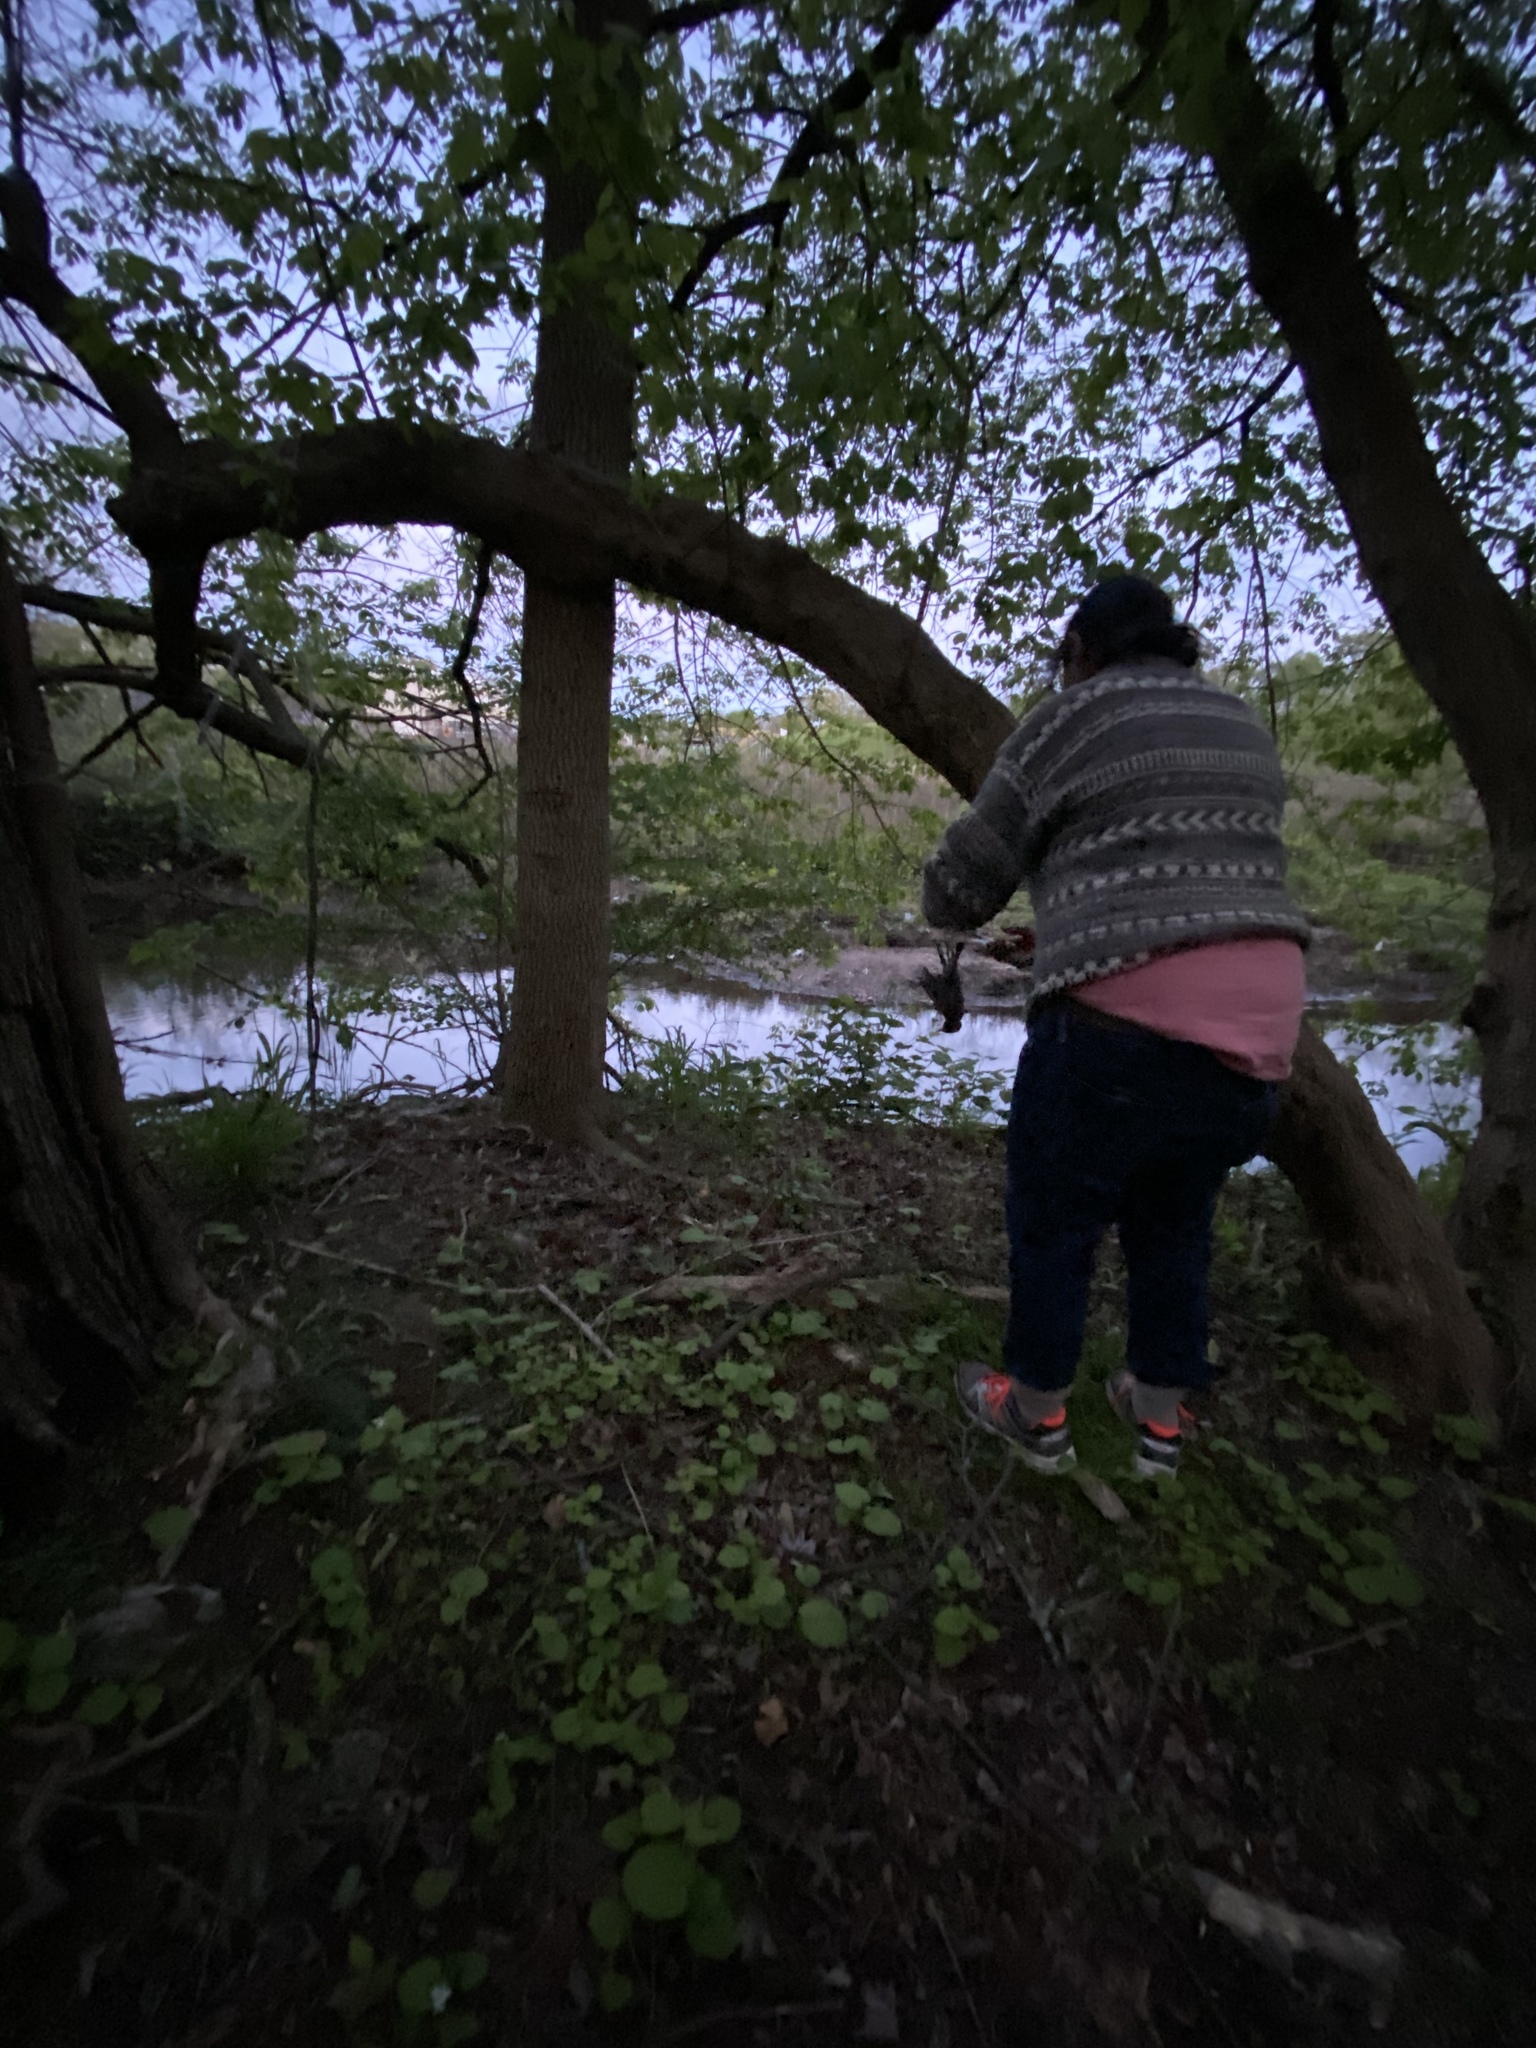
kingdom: Animalia
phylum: Chordata
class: Aves
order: Passeriformes
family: Turdidae
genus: Turdus
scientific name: Turdus migratorius
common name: American robin
